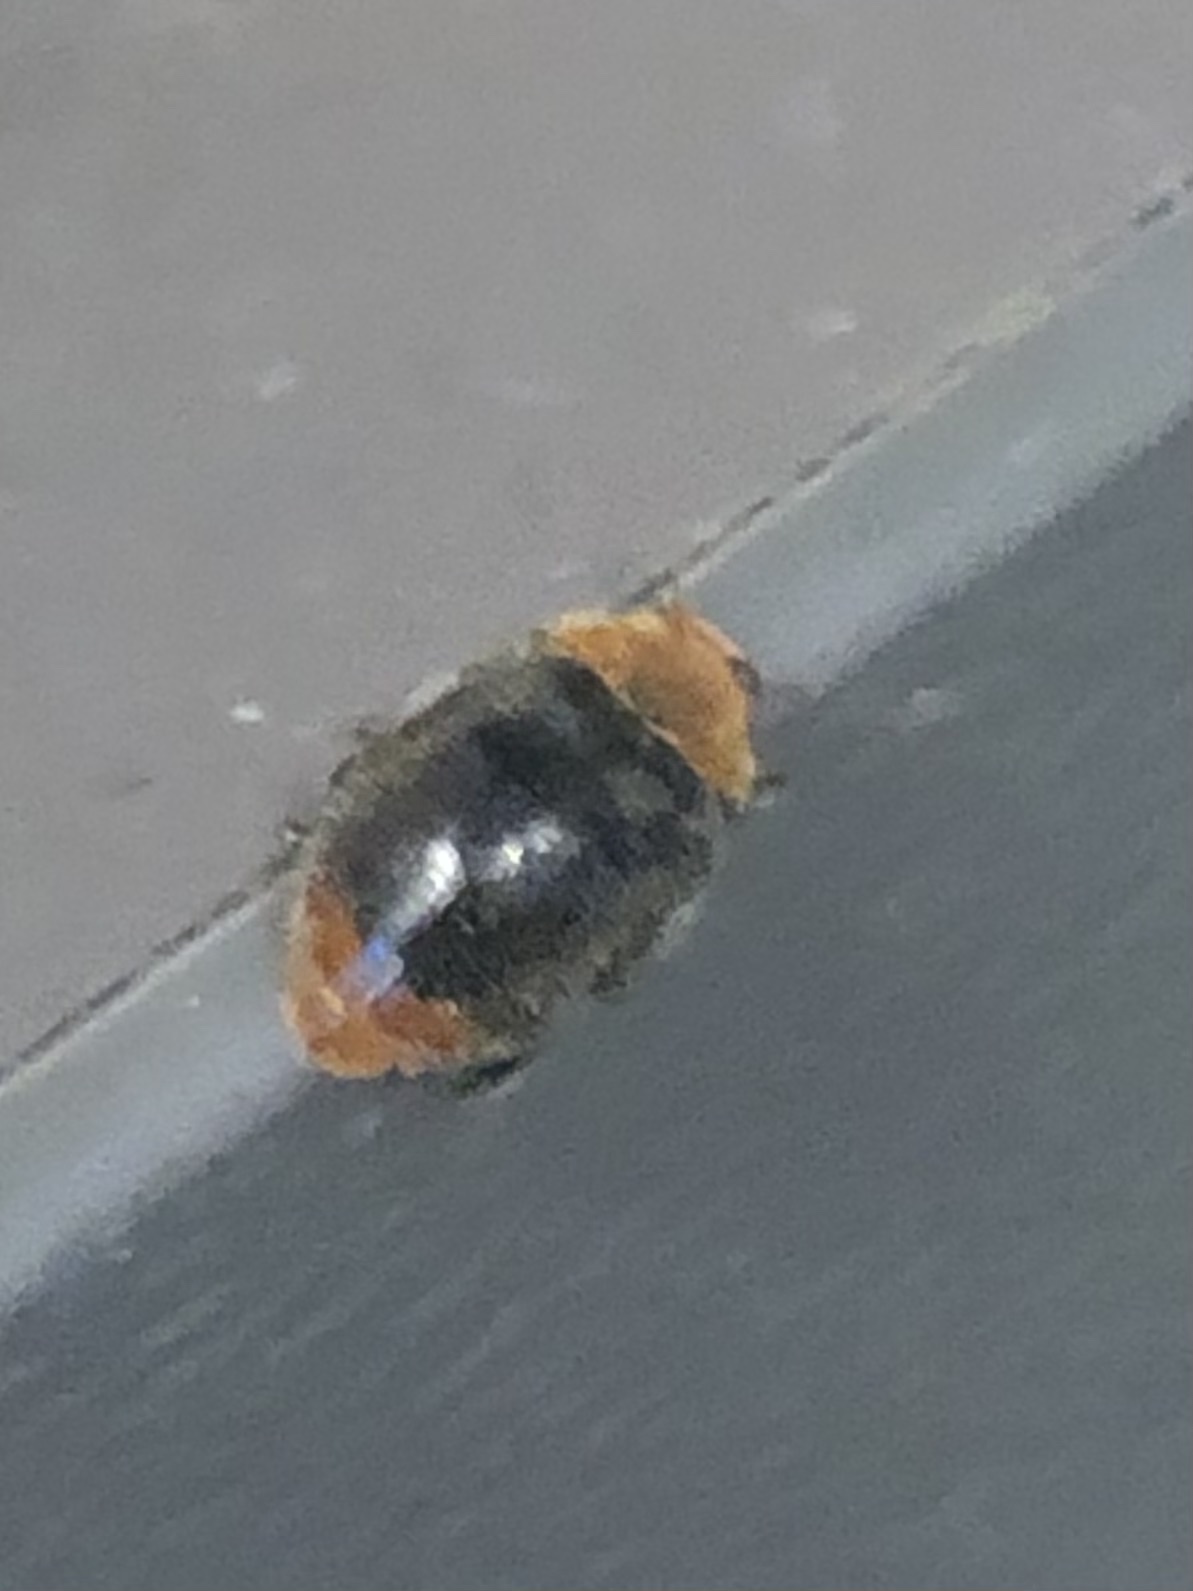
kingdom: Animalia
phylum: Arthropoda
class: Insecta
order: Coleoptera
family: Coccinellidae
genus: Cryptolaemus
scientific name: Cryptolaemus montrouzieri
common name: Mealybug destroyer
